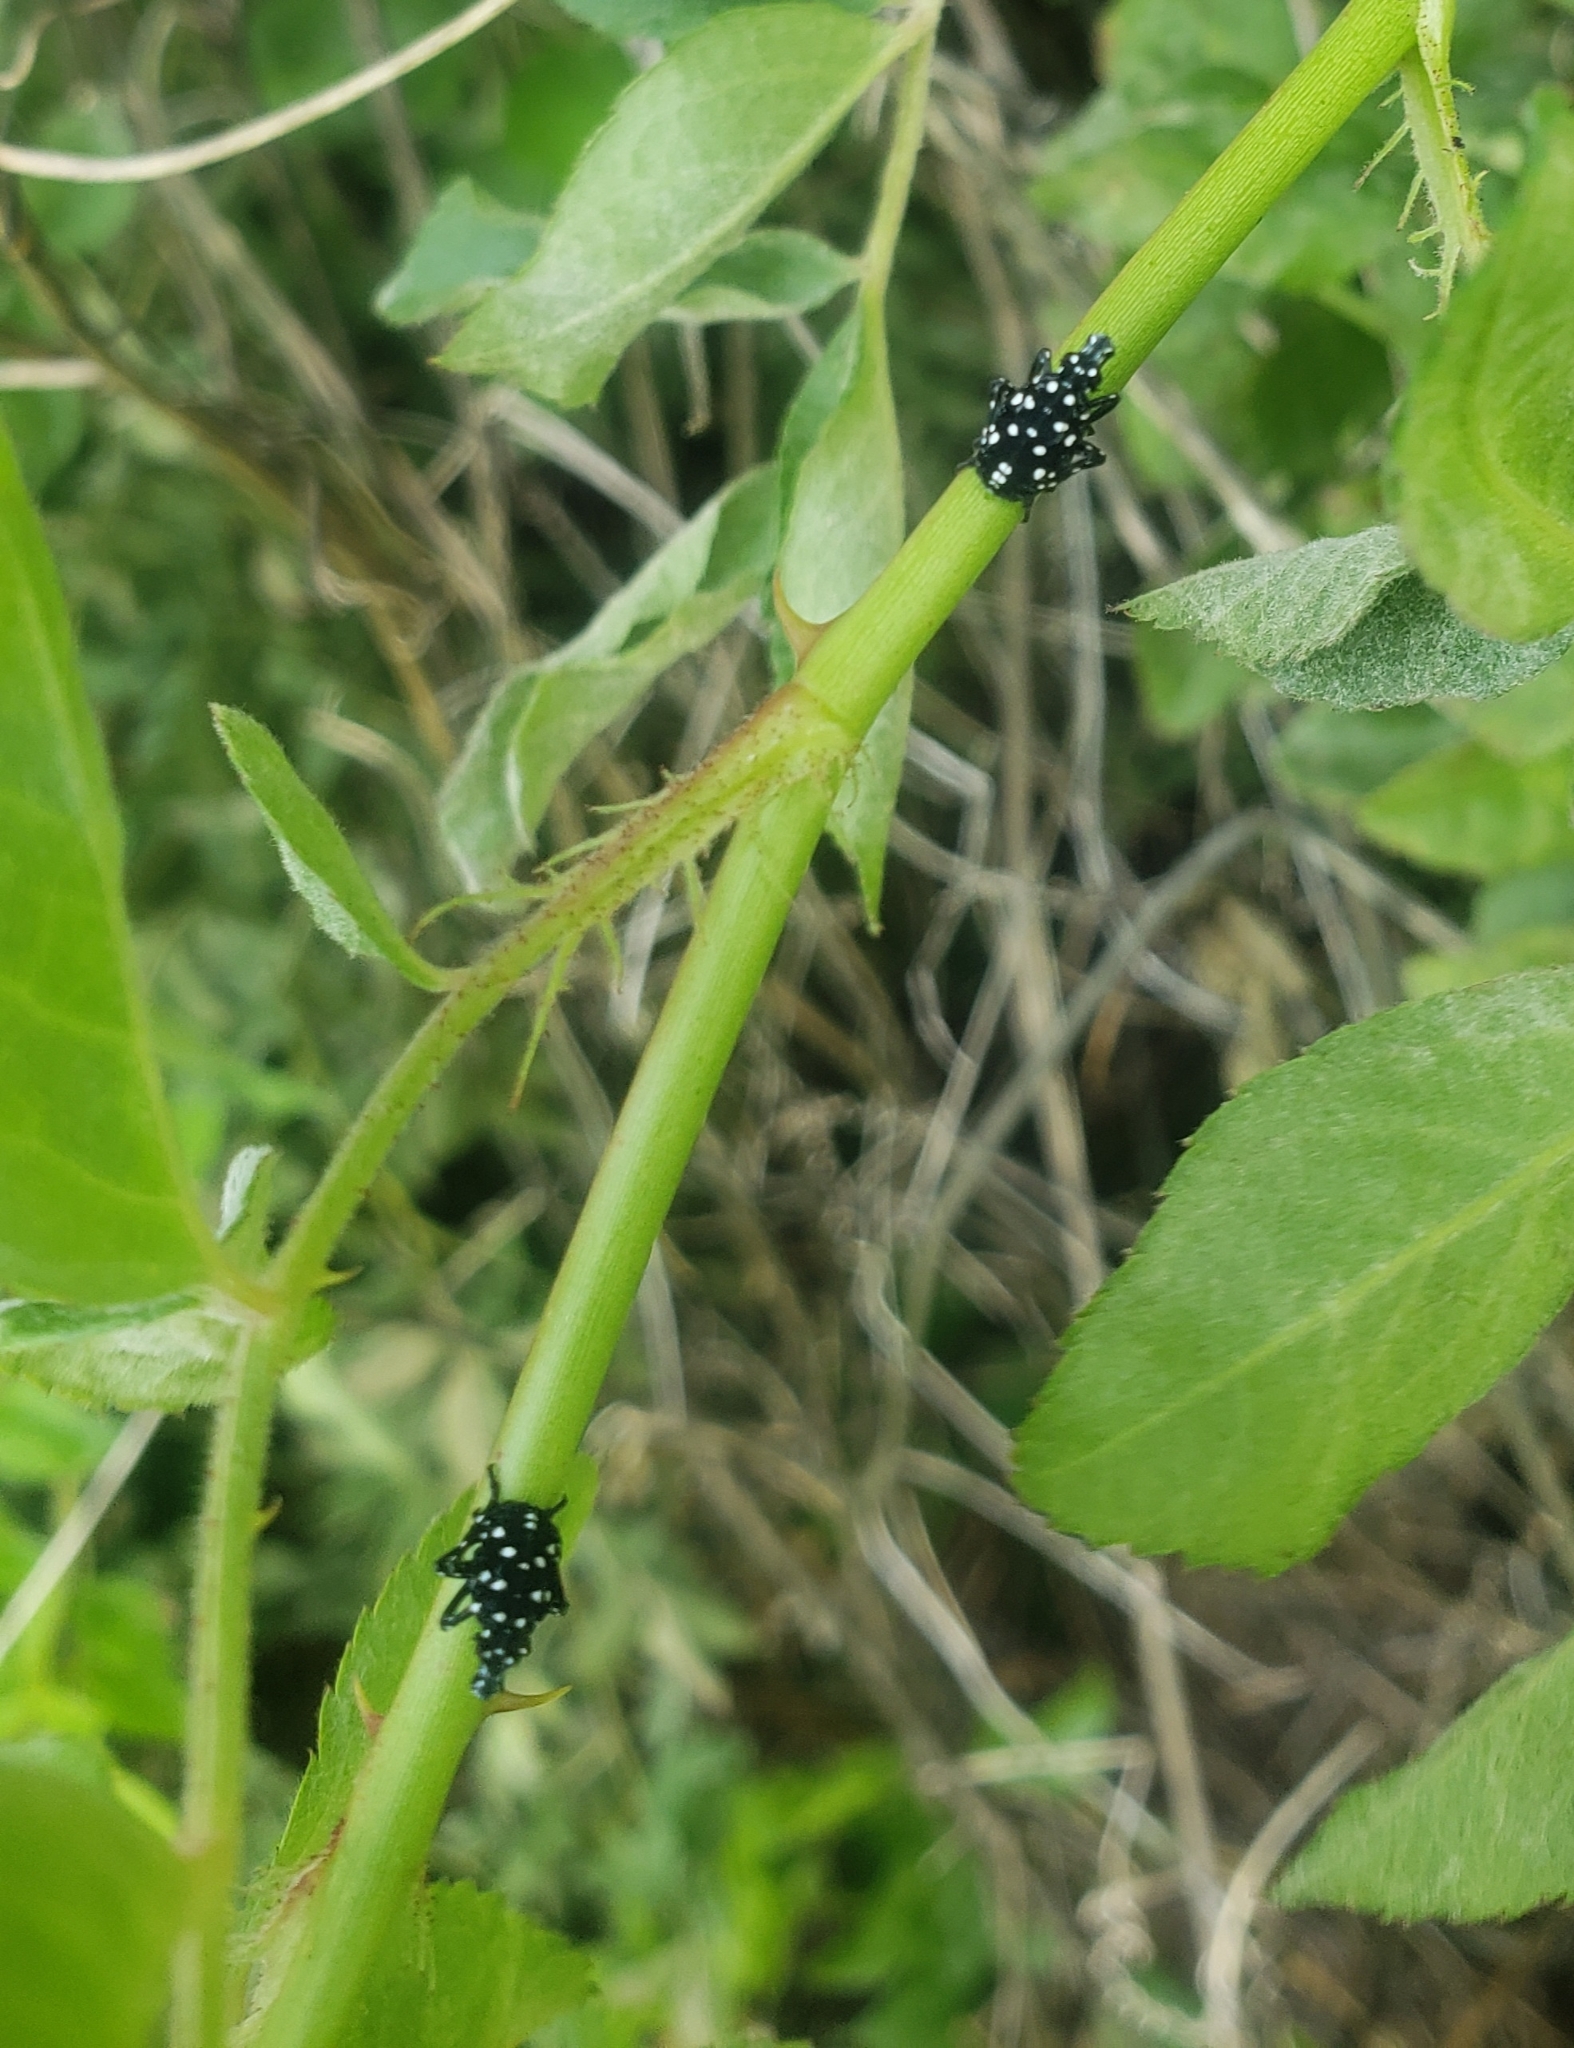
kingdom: Animalia
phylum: Arthropoda
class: Insecta
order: Hemiptera
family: Fulgoridae
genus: Lycorma
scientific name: Lycorma delicatula
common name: Spotted lanternfly
